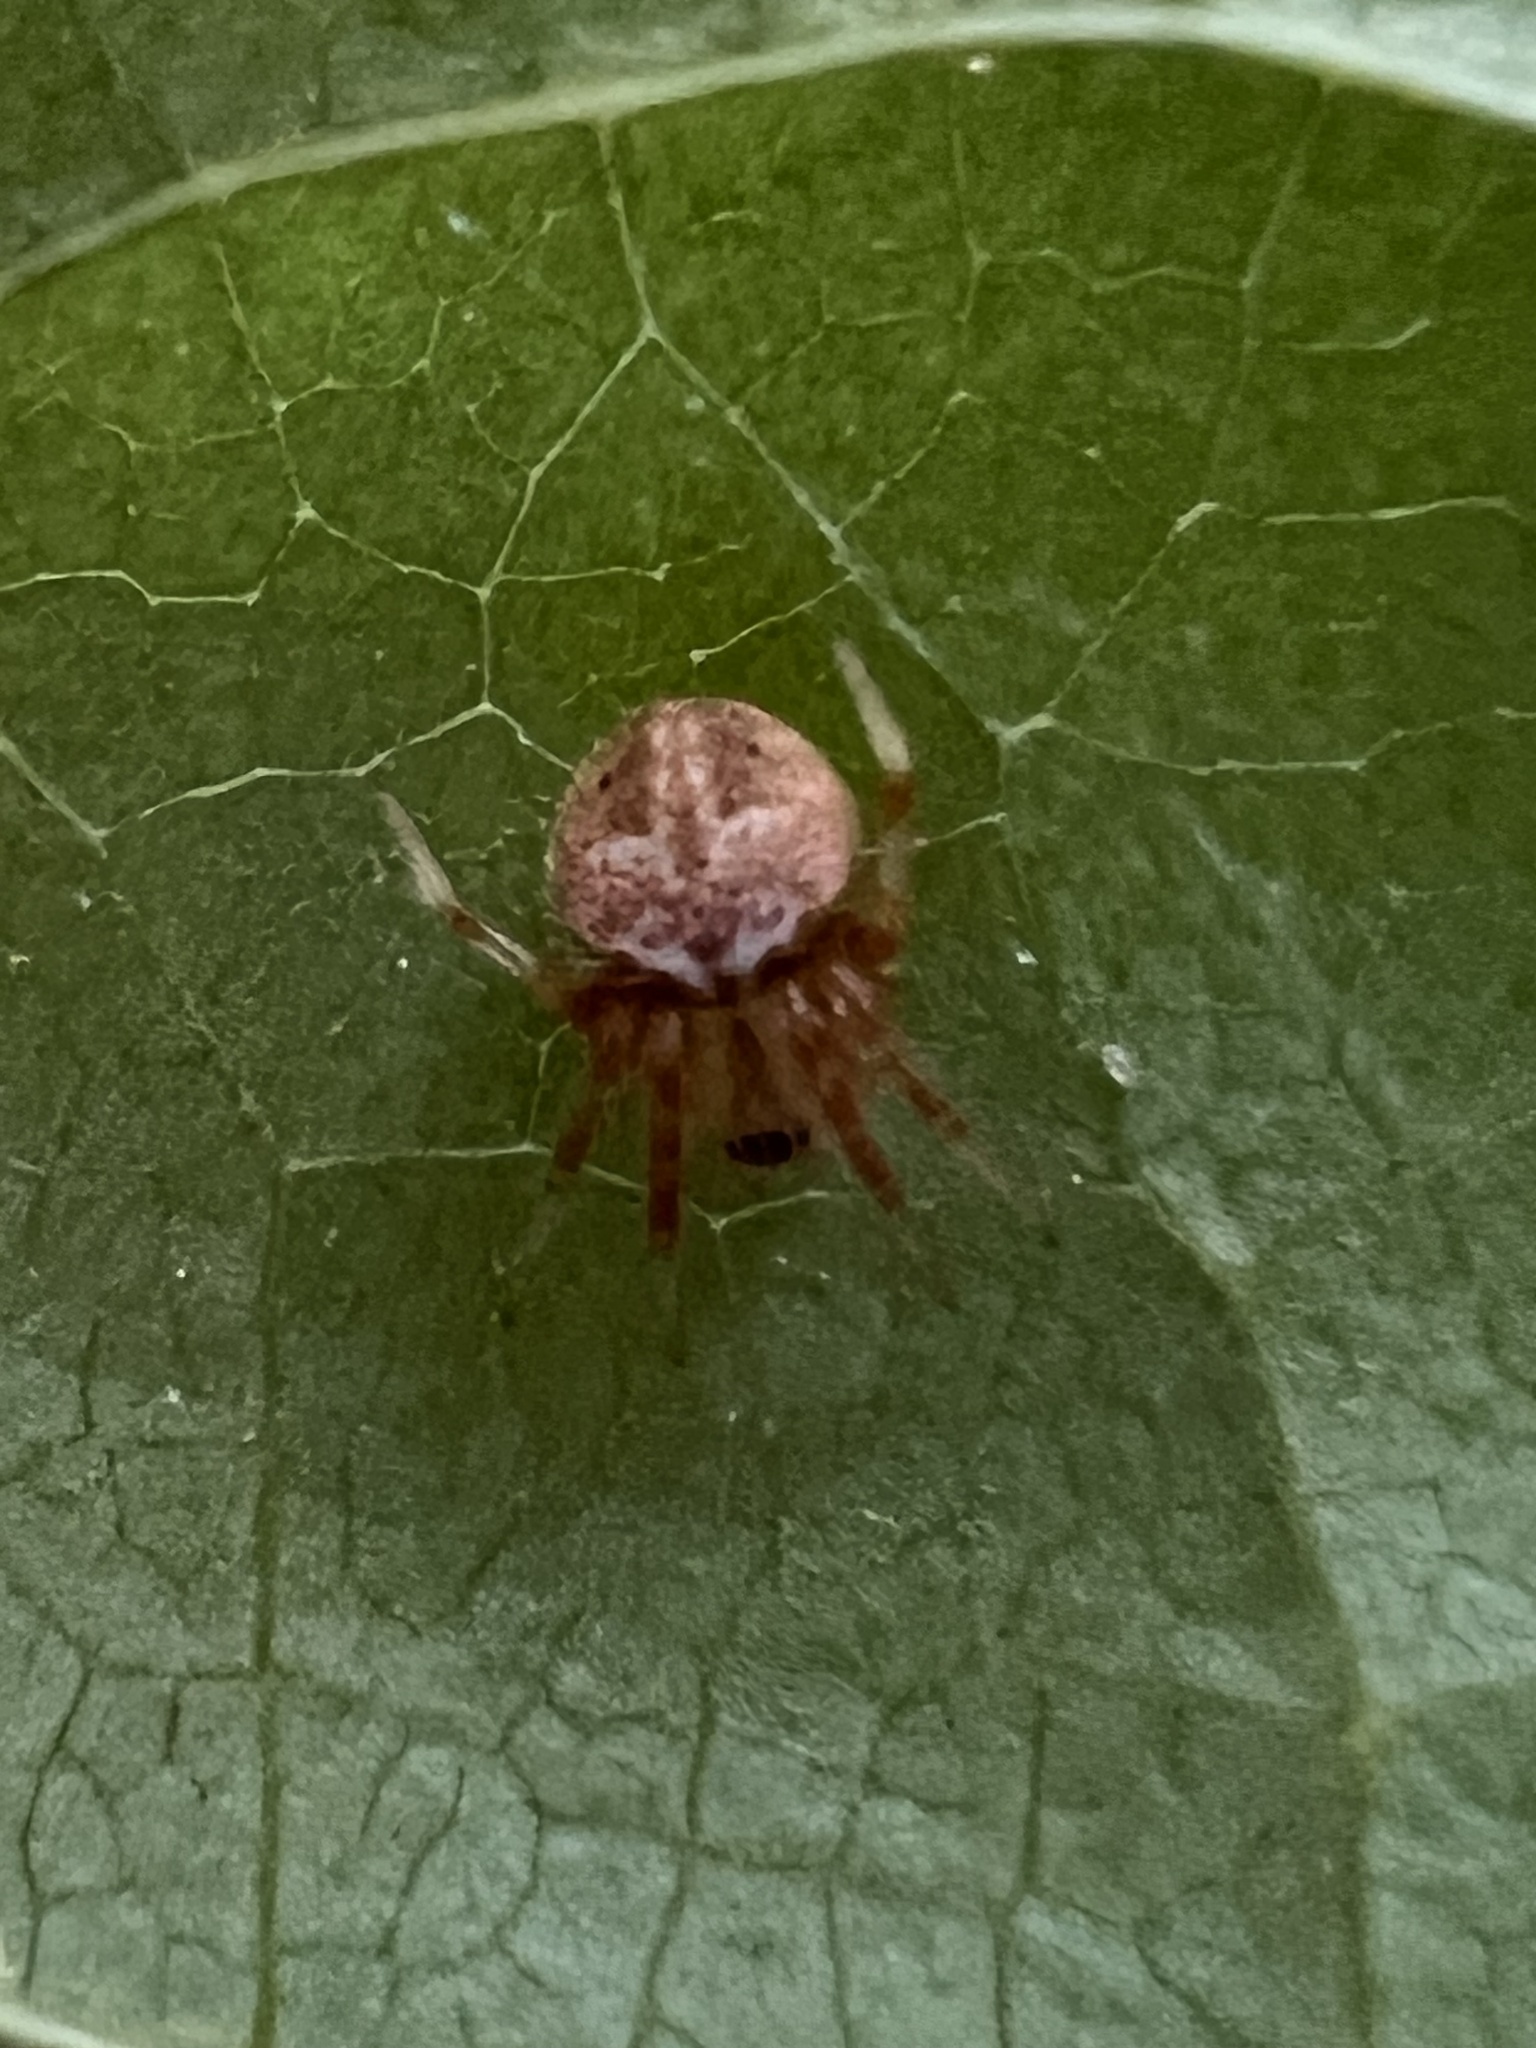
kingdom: Animalia
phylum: Arthropoda
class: Arachnida
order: Araneae
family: Araneidae
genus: Neoscona
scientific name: Neoscona arabesca
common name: Orb weavers
